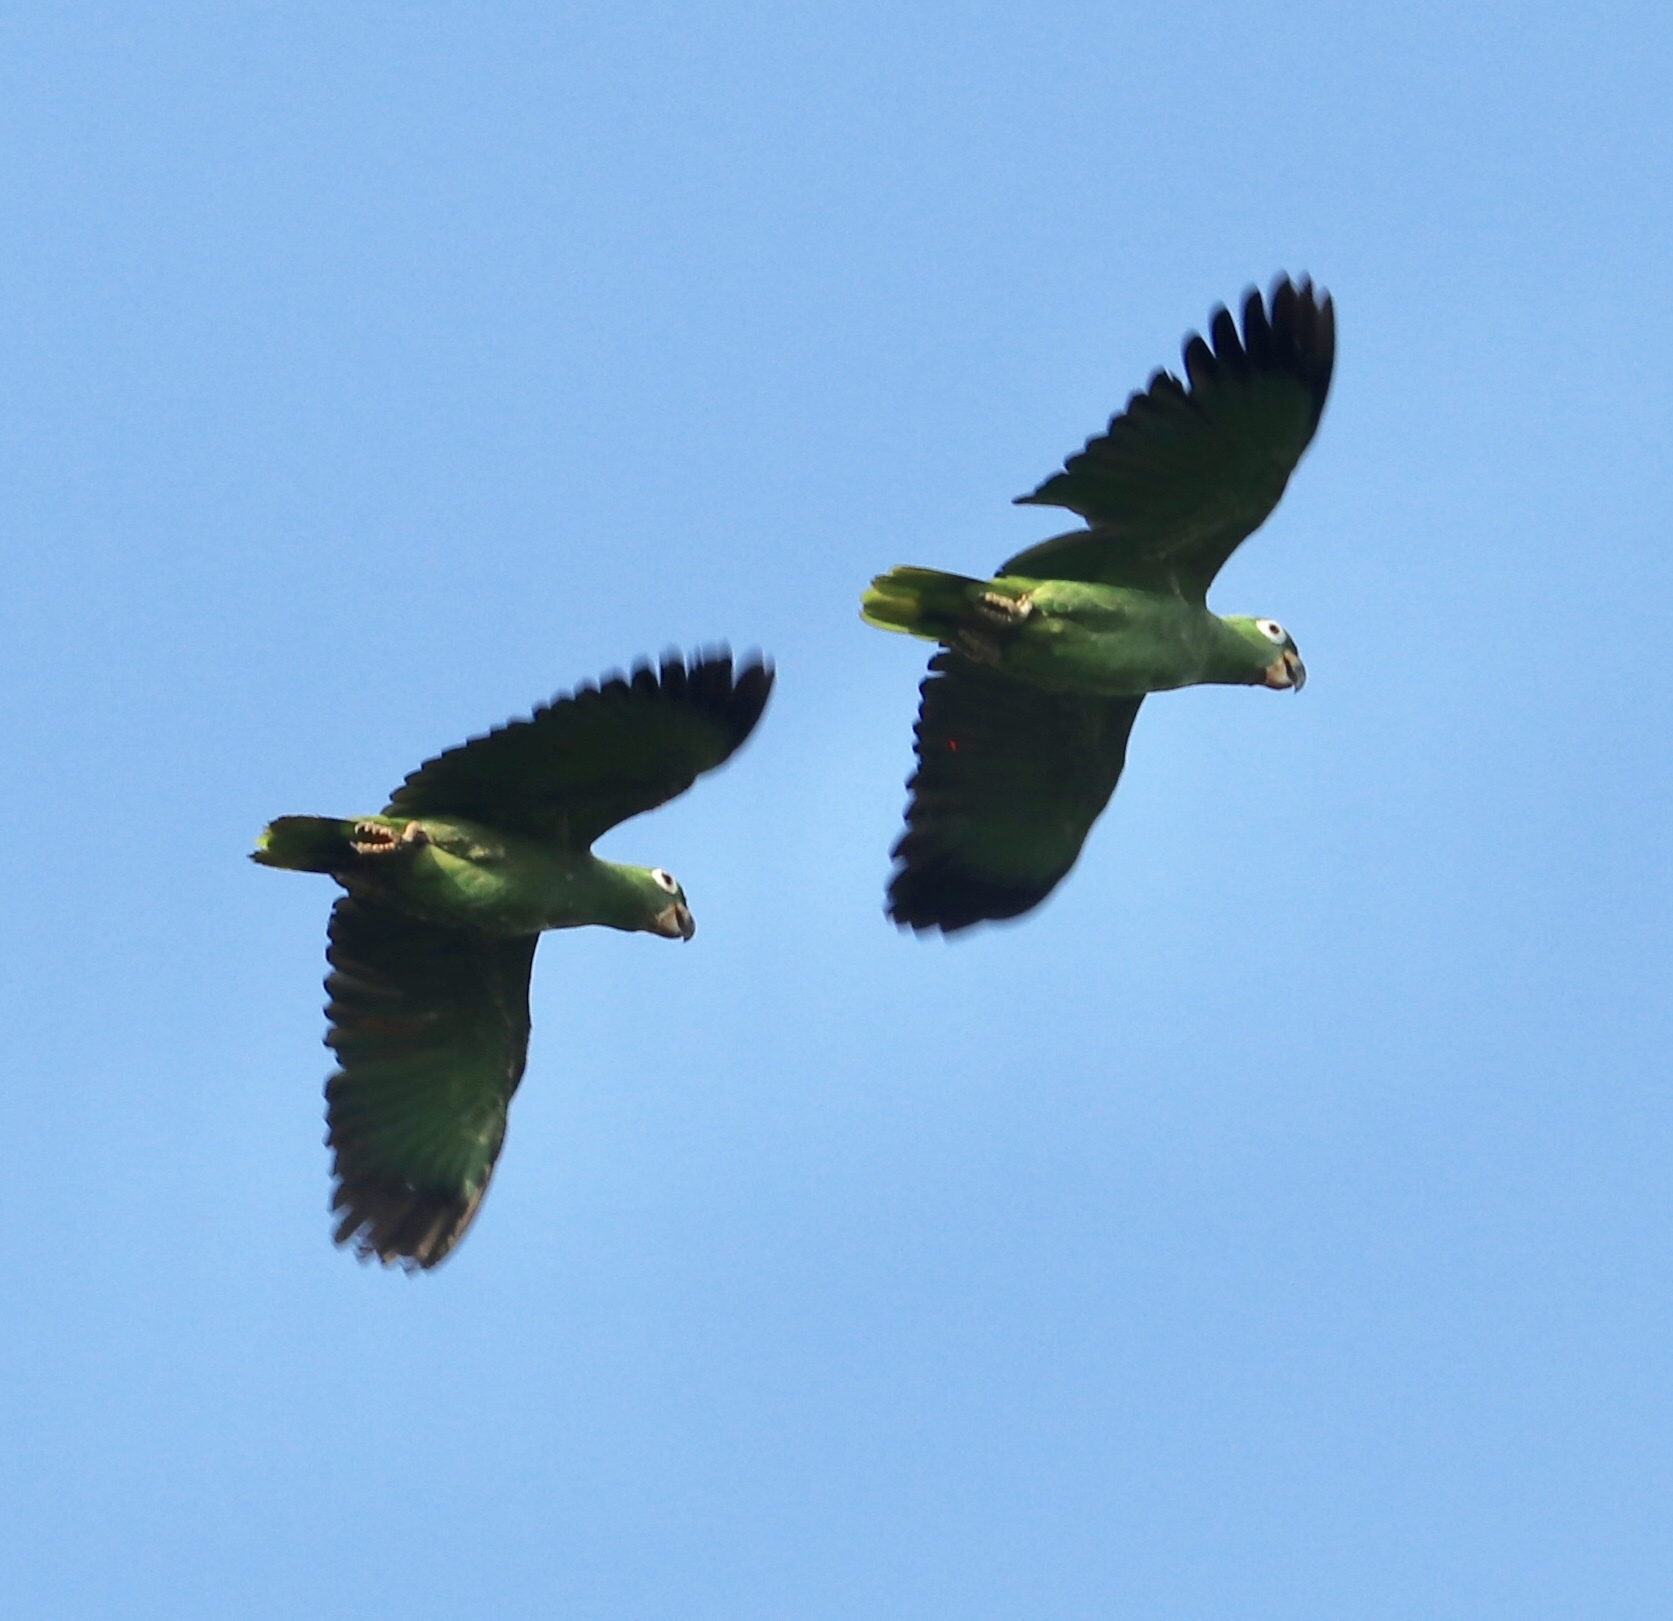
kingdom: Animalia
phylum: Chordata
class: Aves
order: Psittaciformes
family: Psittacidae
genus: Amazona
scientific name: Amazona farinosa
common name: Mealy parrot
